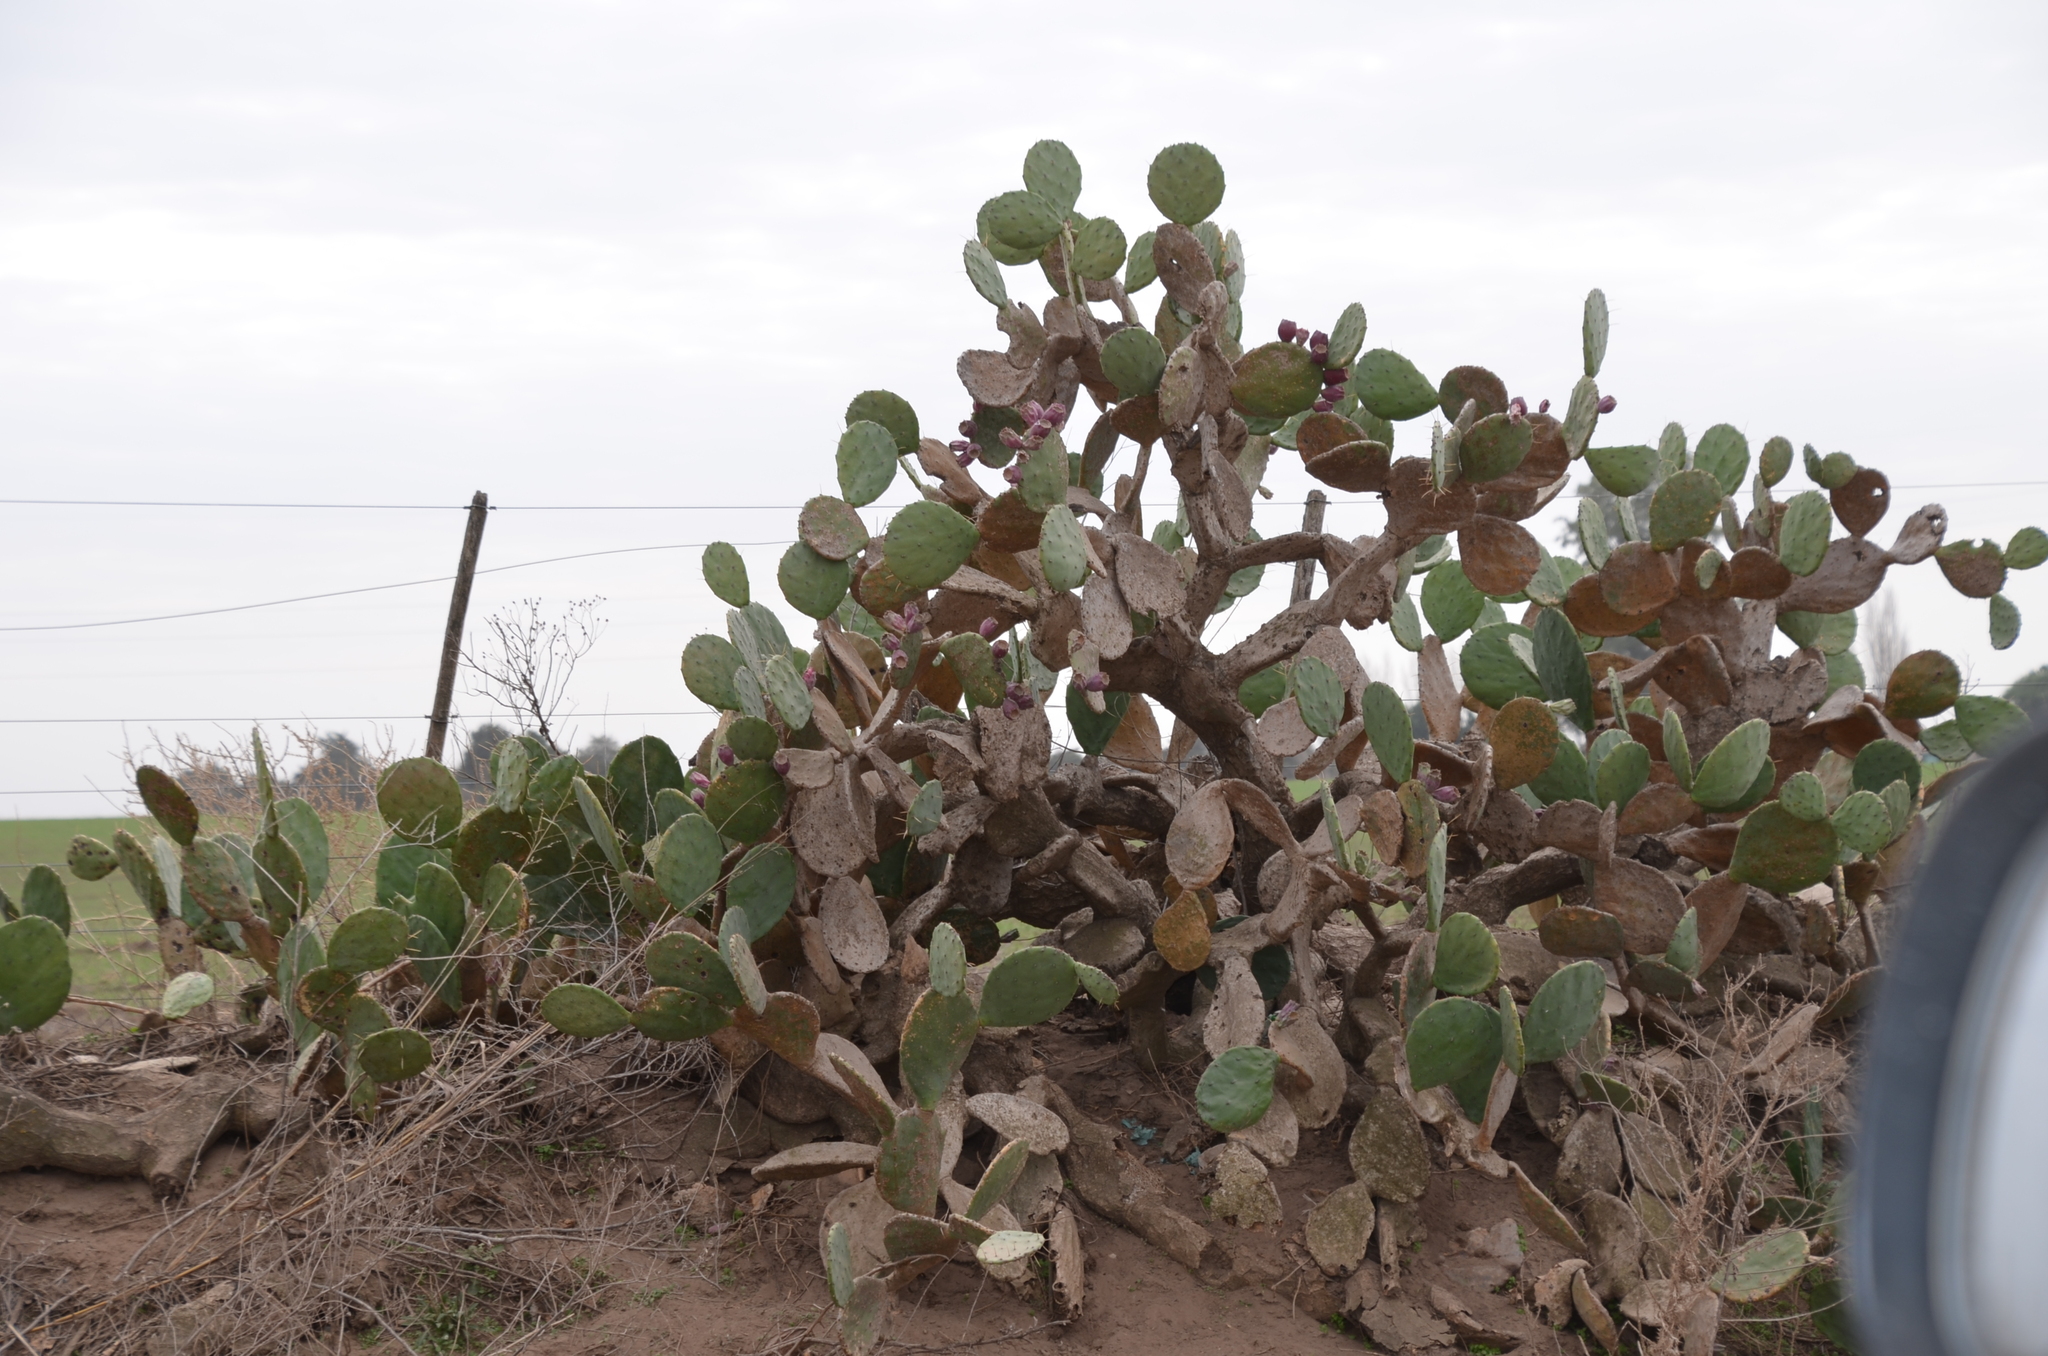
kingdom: Plantae
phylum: Tracheophyta
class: Magnoliopsida
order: Caryophyllales
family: Cactaceae
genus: Opuntia
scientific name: Opuntia megapotamica
